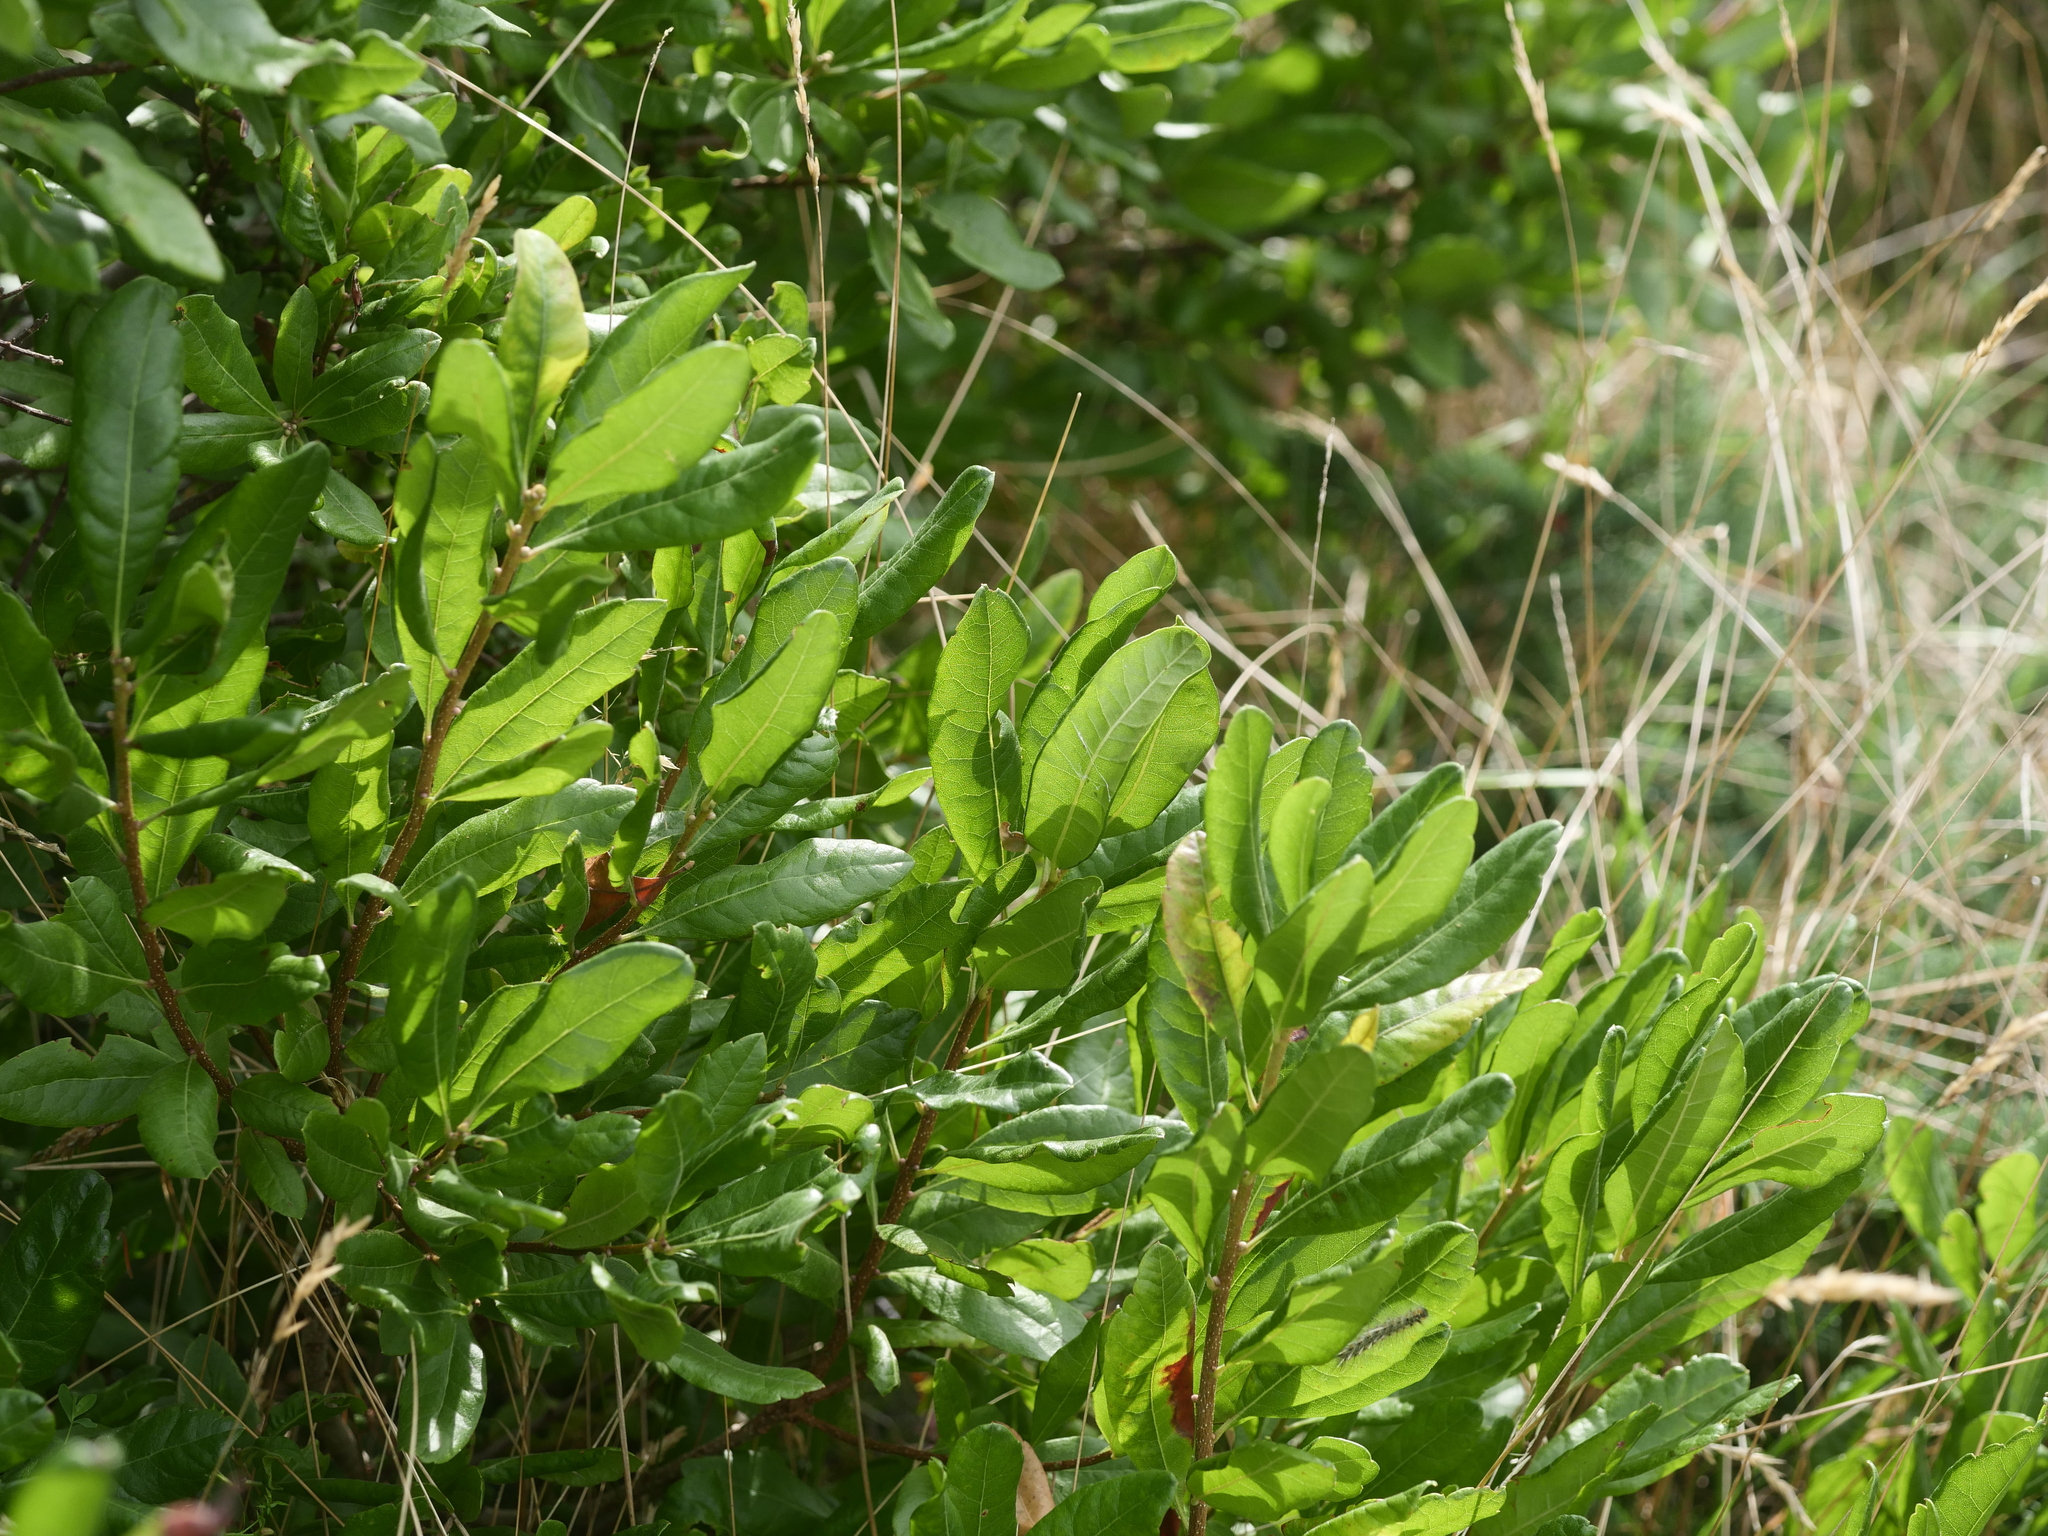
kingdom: Plantae
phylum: Tracheophyta
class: Magnoliopsida
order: Fagales
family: Myricaceae
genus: Morella
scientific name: Morella pensylvanica
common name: Northern bayberry
